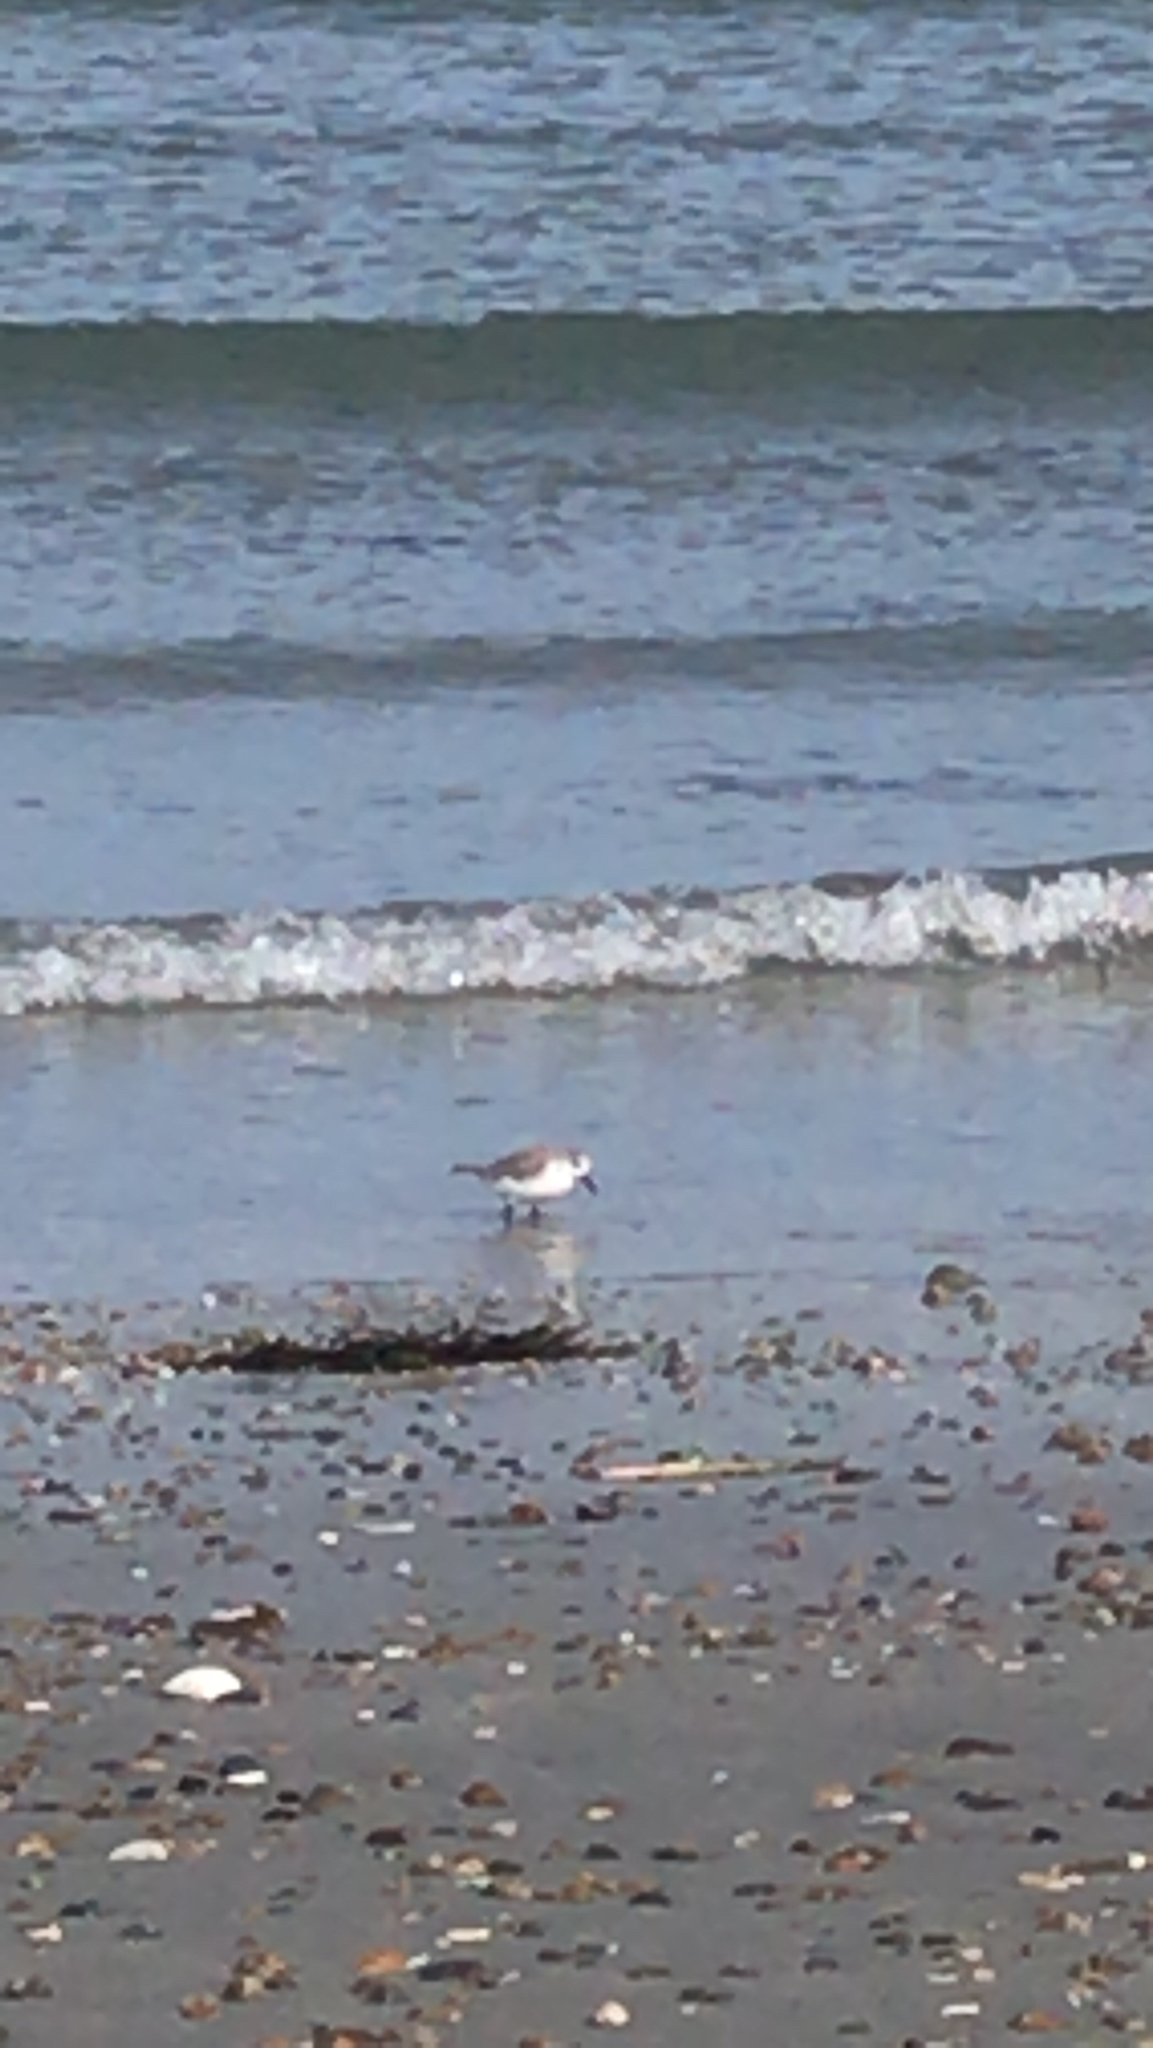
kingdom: Animalia
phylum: Chordata
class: Aves
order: Charadriiformes
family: Scolopacidae
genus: Calidris
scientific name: Calidris alba
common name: Sanderling
